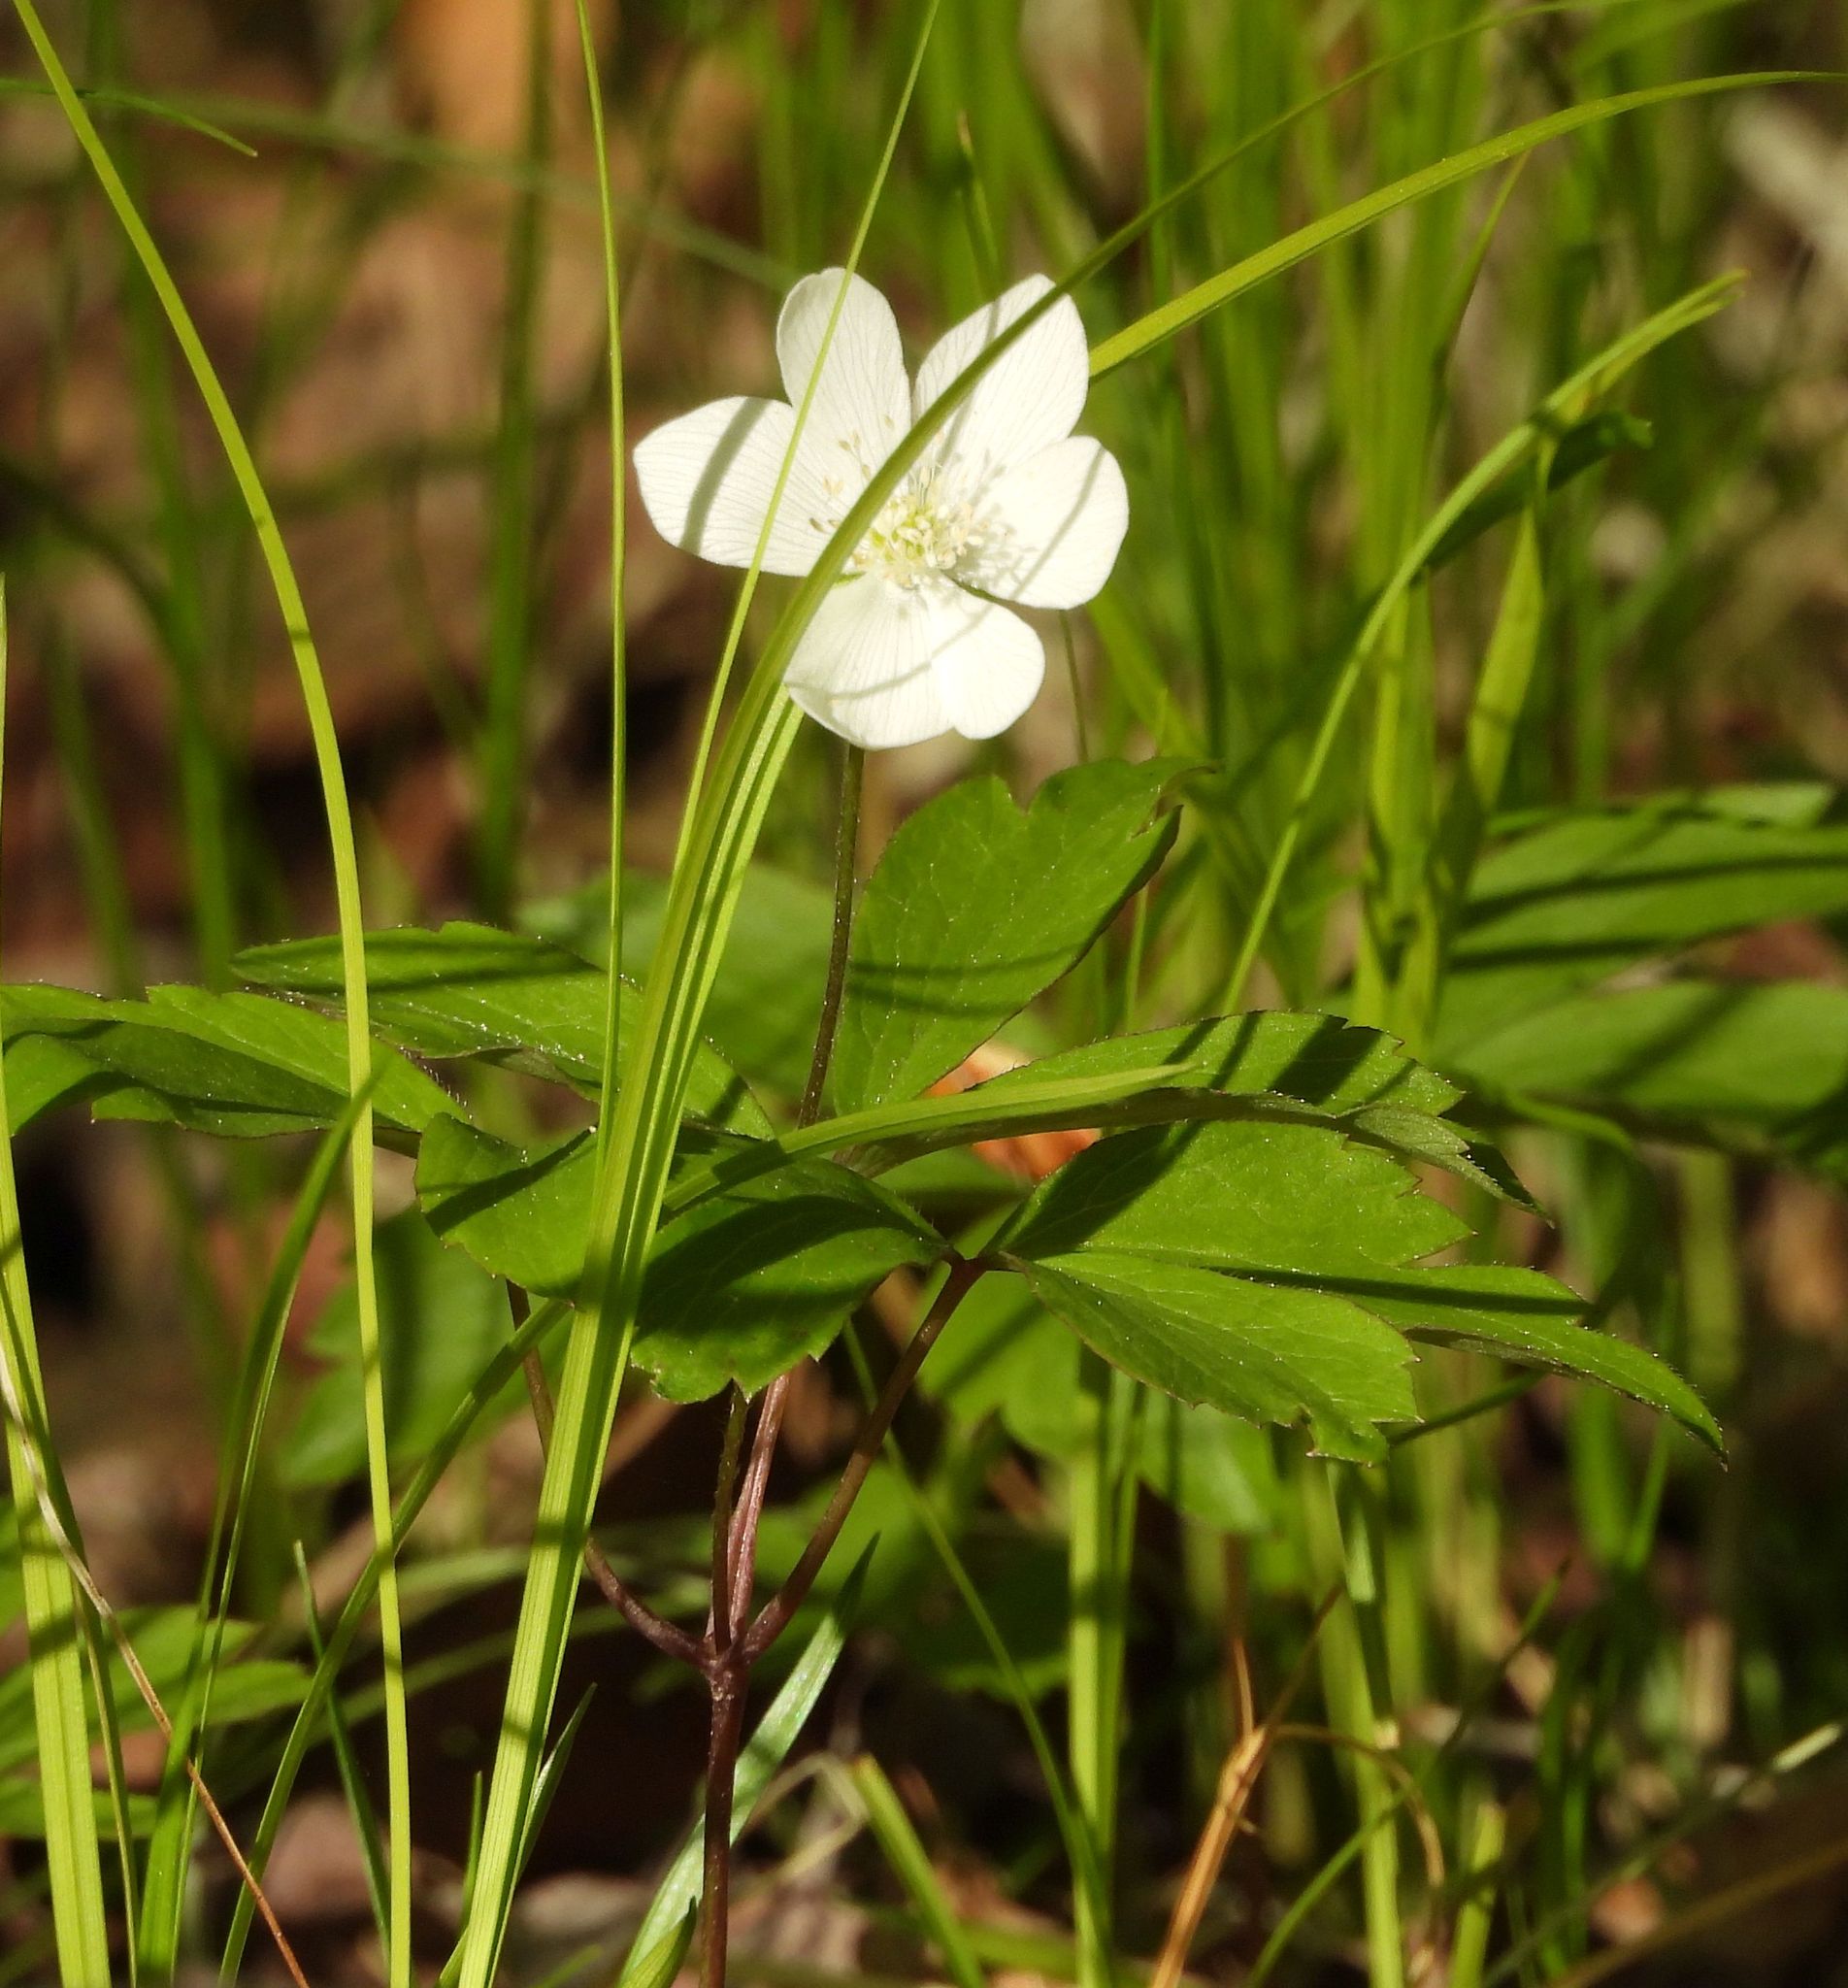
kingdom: Plantae
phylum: Tracheophyta
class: Magnoliopsida
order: Ranunculales
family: Ranunculaceae
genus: Anemone
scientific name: Anemone quinquefolia
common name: Wood anemone
